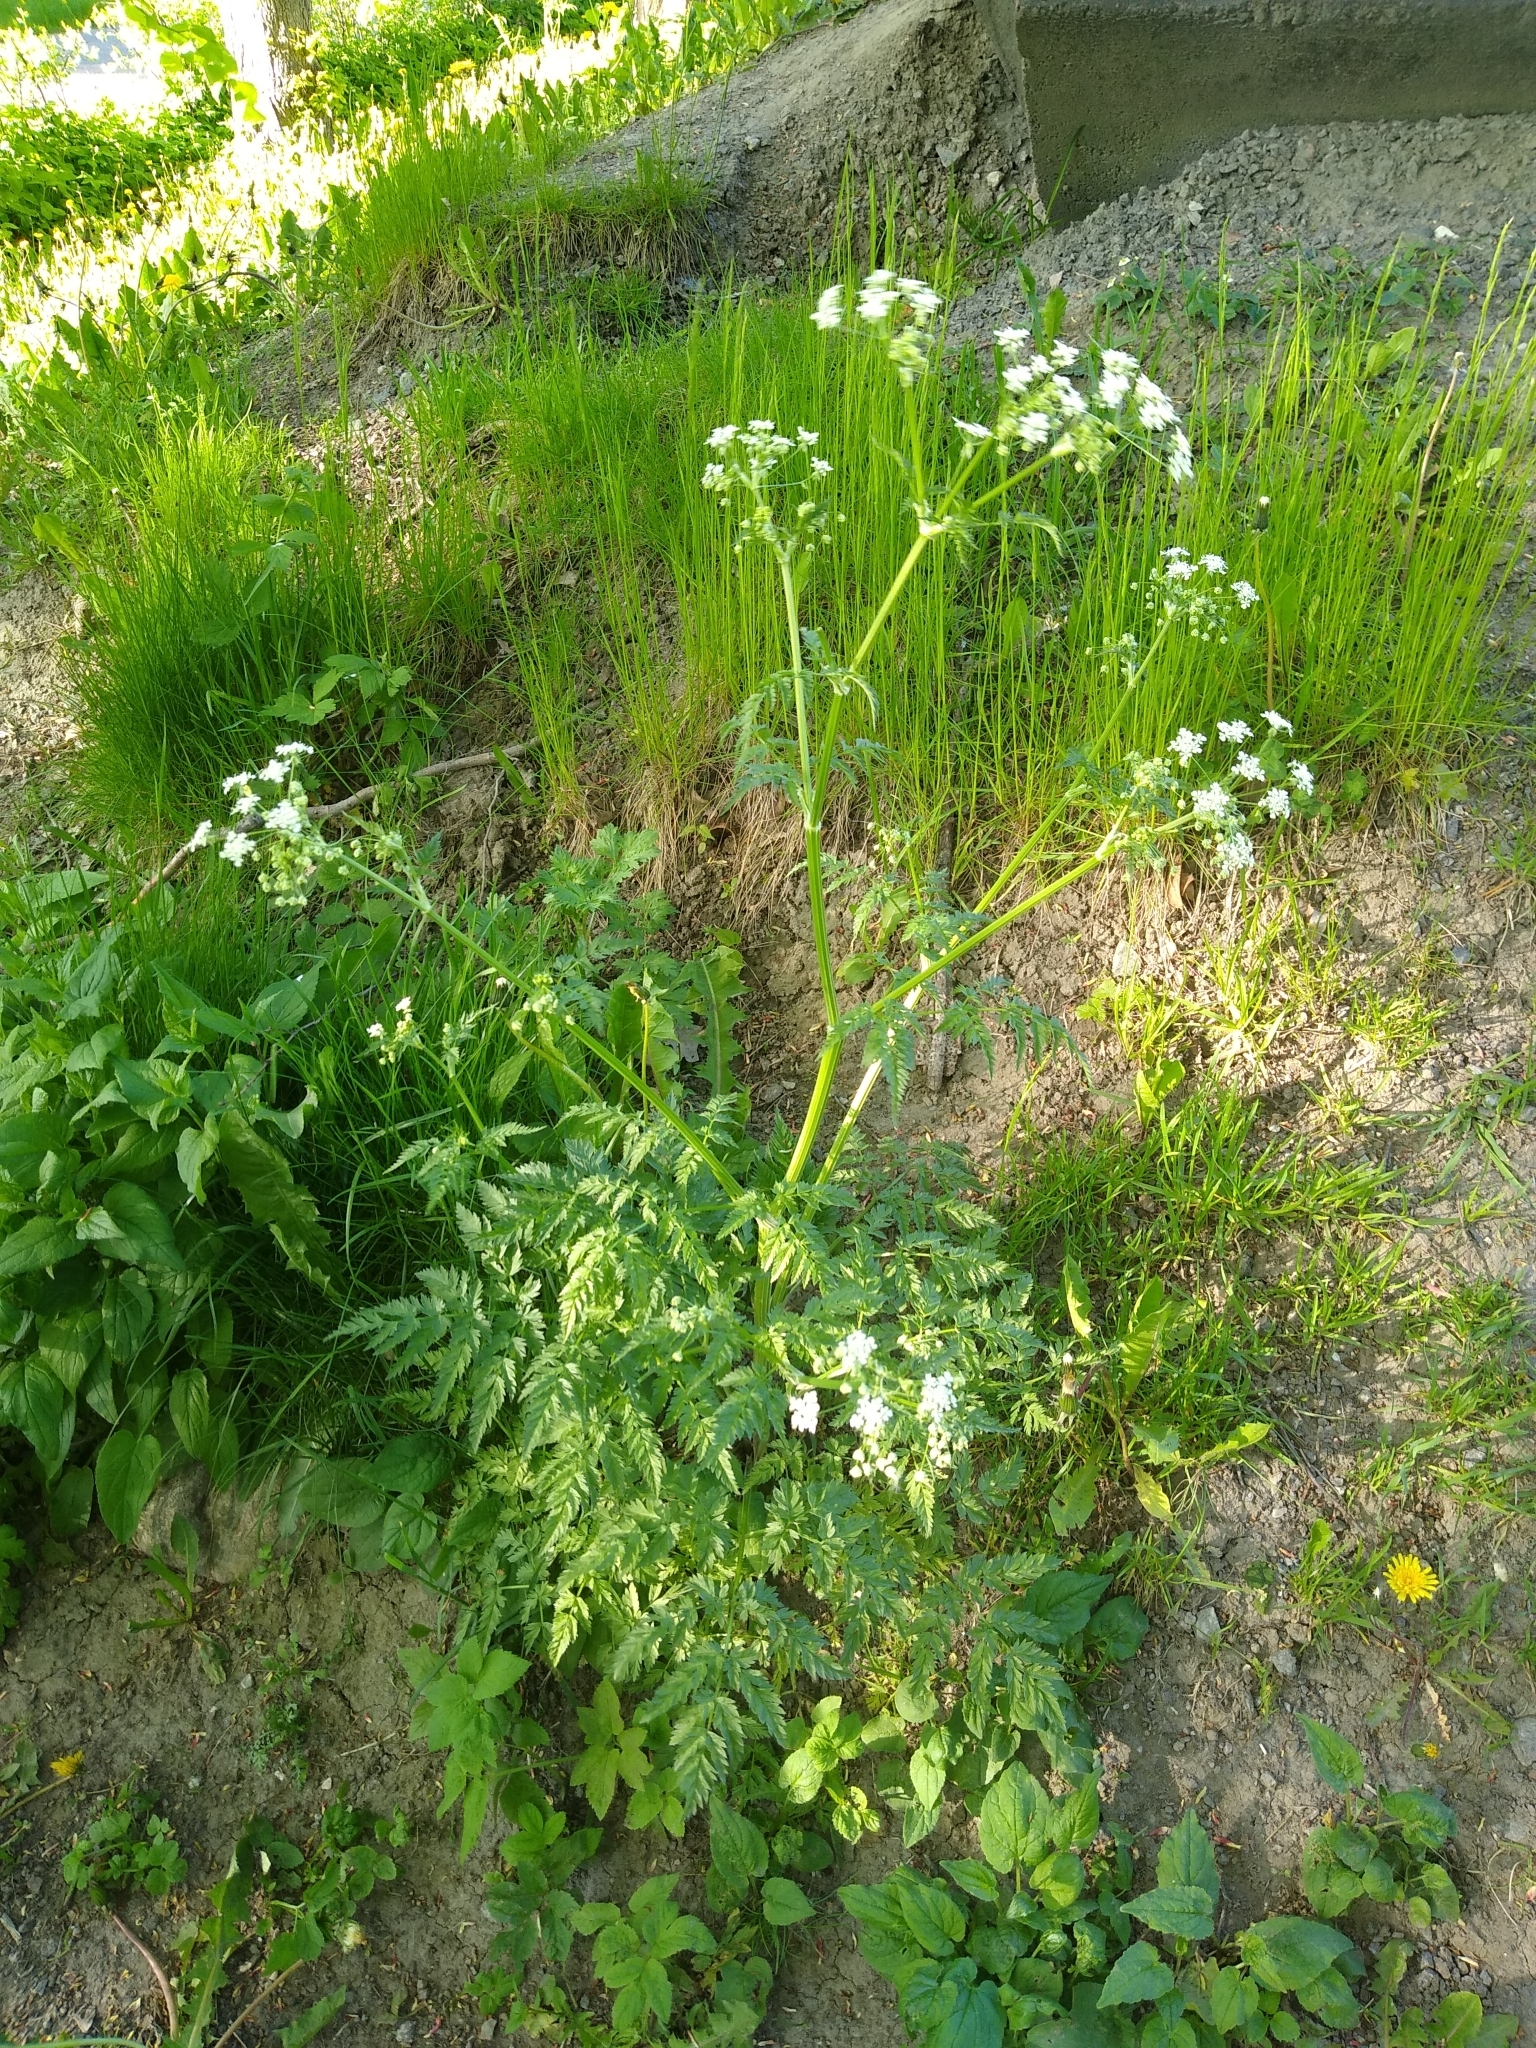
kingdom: Plantae
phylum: Tracheophyta
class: Magnoliopsida
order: Apiales
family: Apiaceae
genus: Anthriscus
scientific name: Anthriscus sylvestris
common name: Cow parsley
